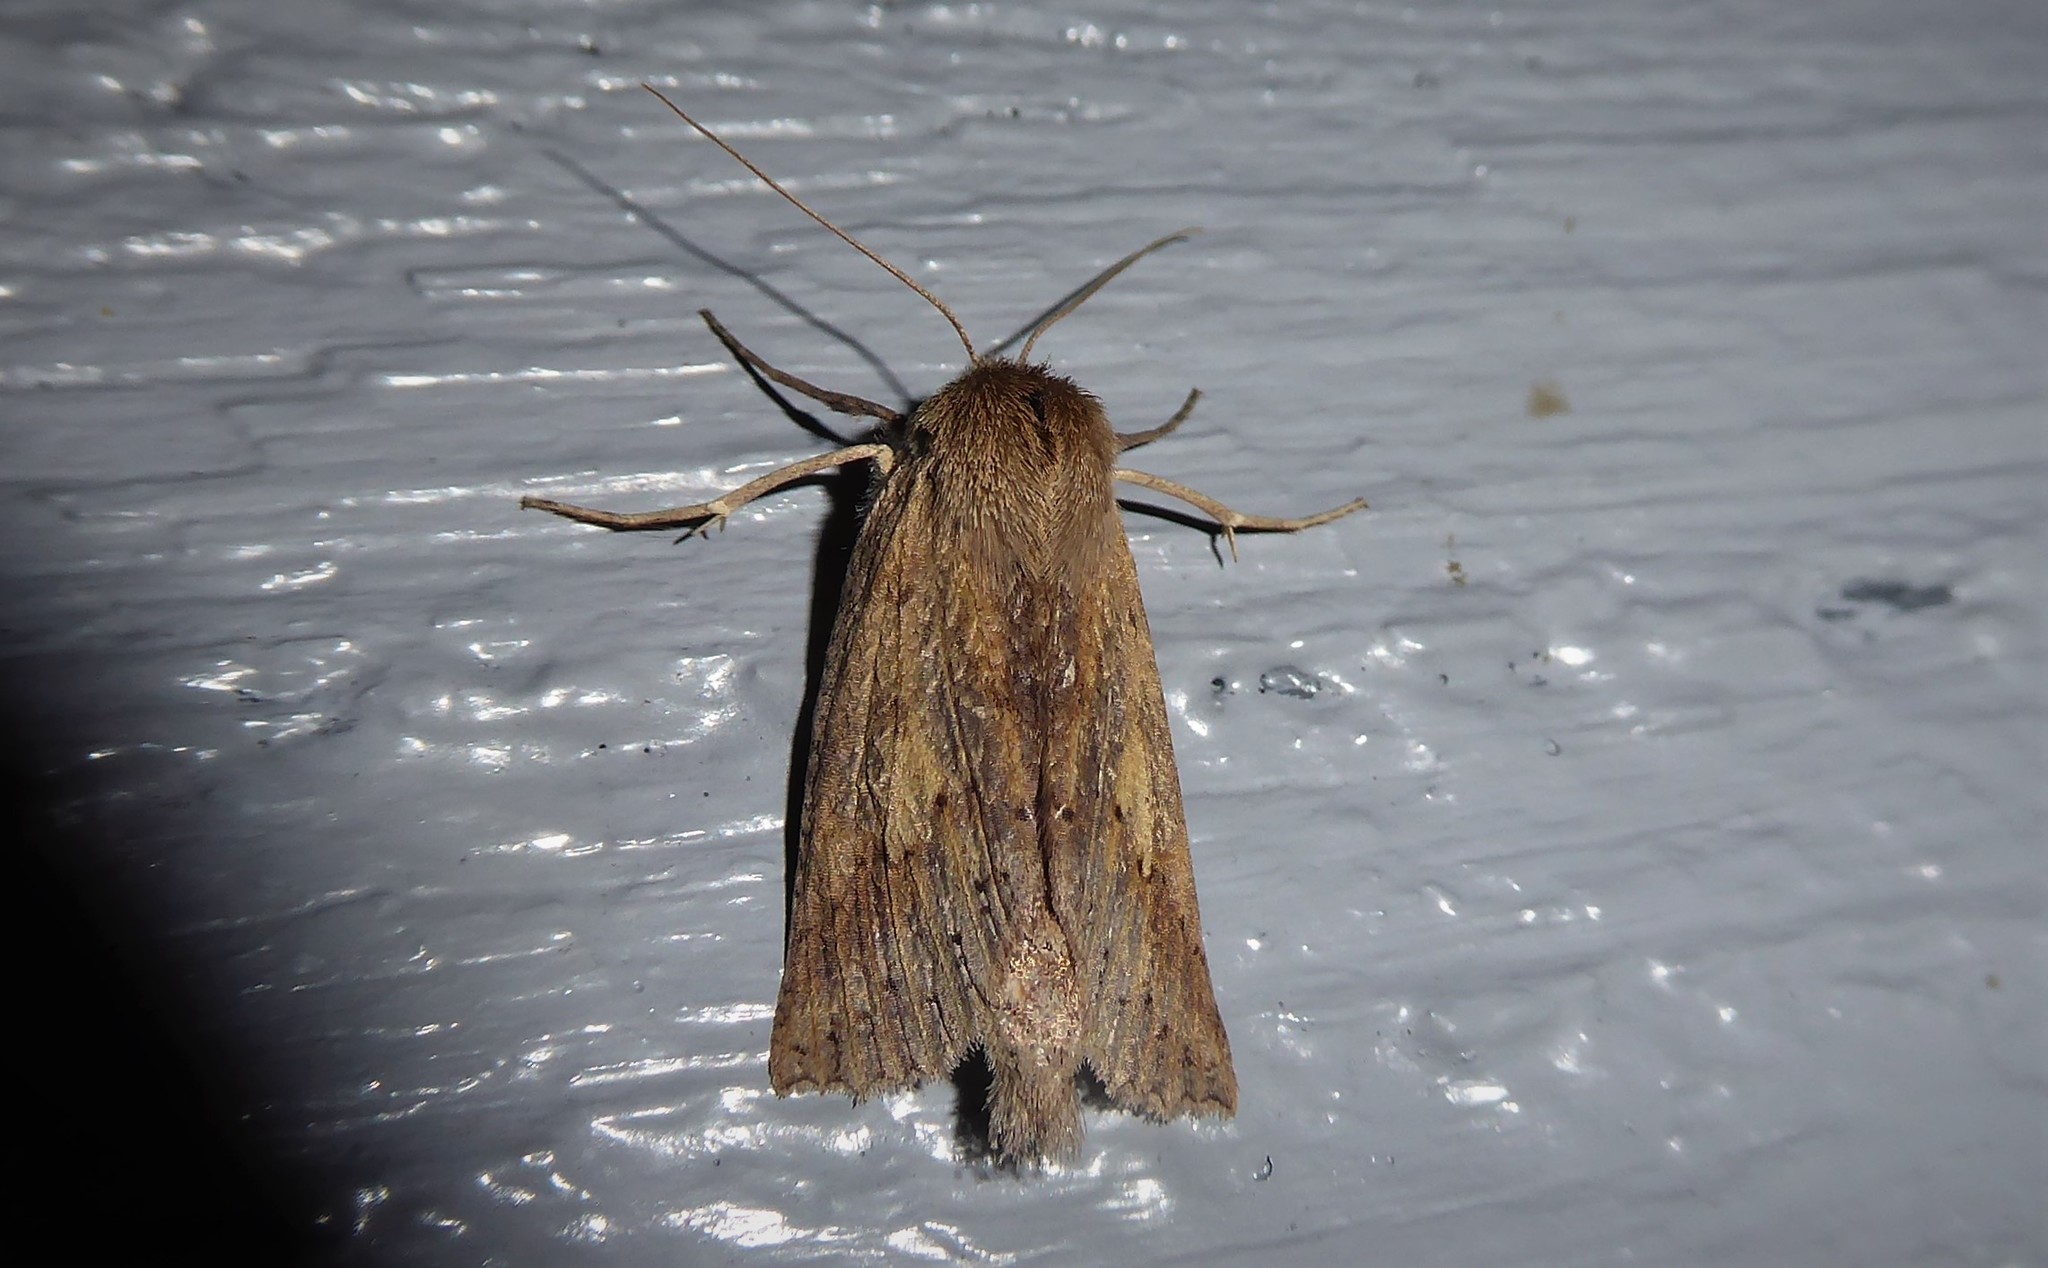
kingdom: Animalia
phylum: Arthropoda
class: Insecta
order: Lepidoptera
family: Geometridae
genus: Declana
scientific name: Declana leptomera
